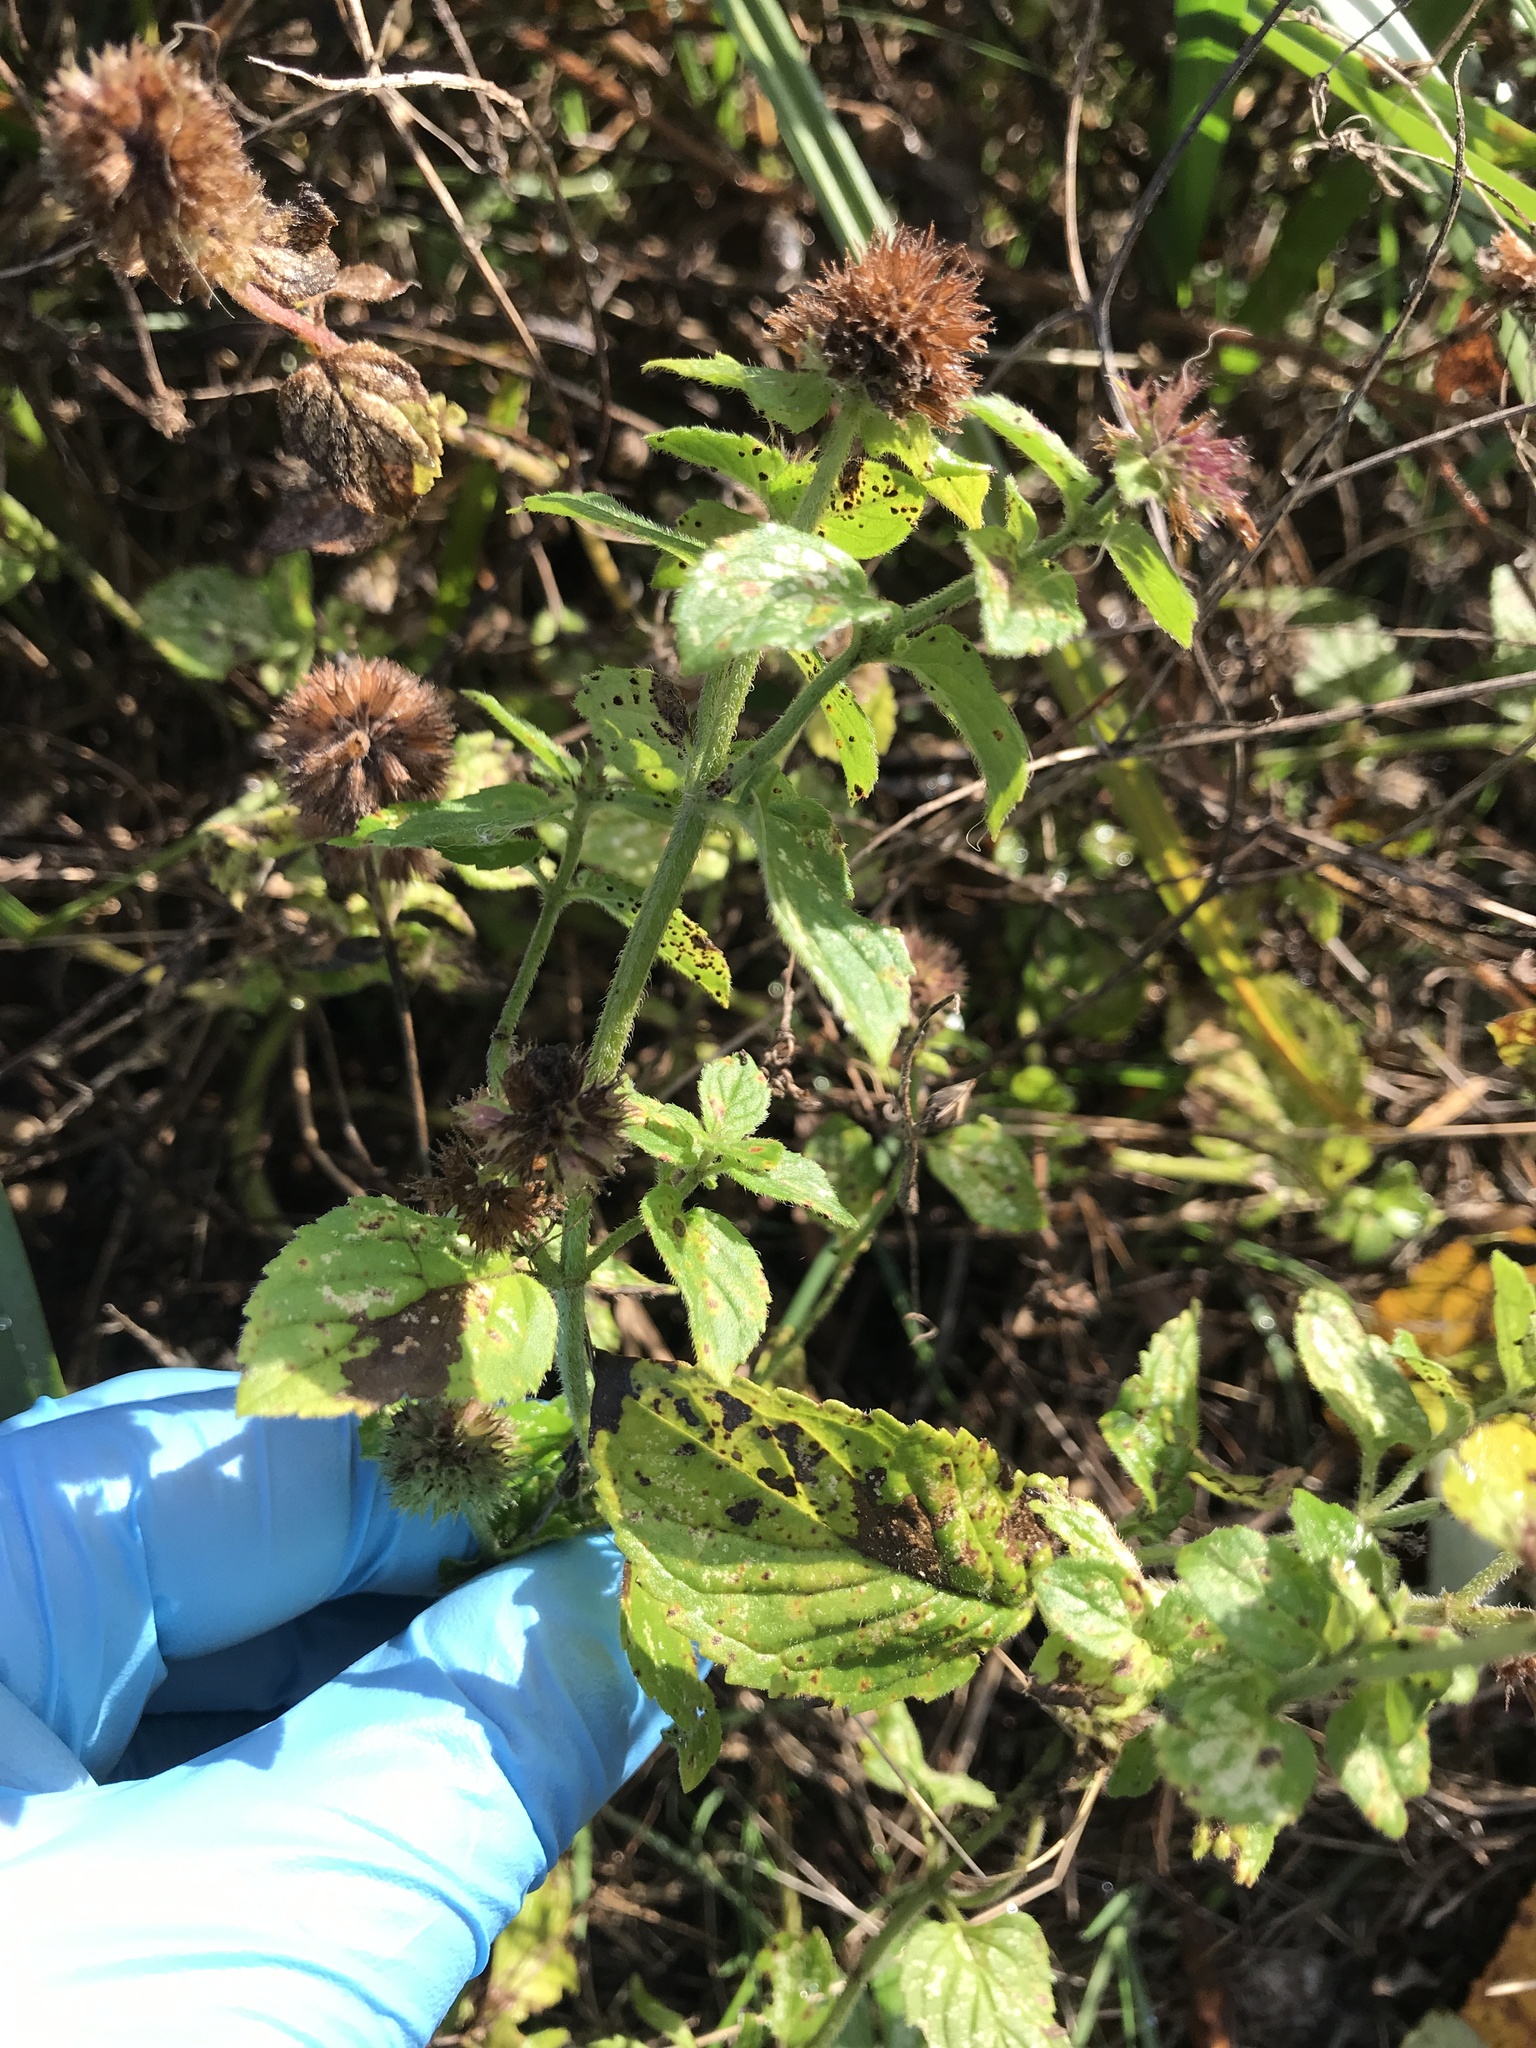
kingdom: Plantae
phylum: Tracheophyta
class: Magnoliopsida
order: Lamiales
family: Lamiaceae
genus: Mentha
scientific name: Mentha aquatica
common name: Water mint
